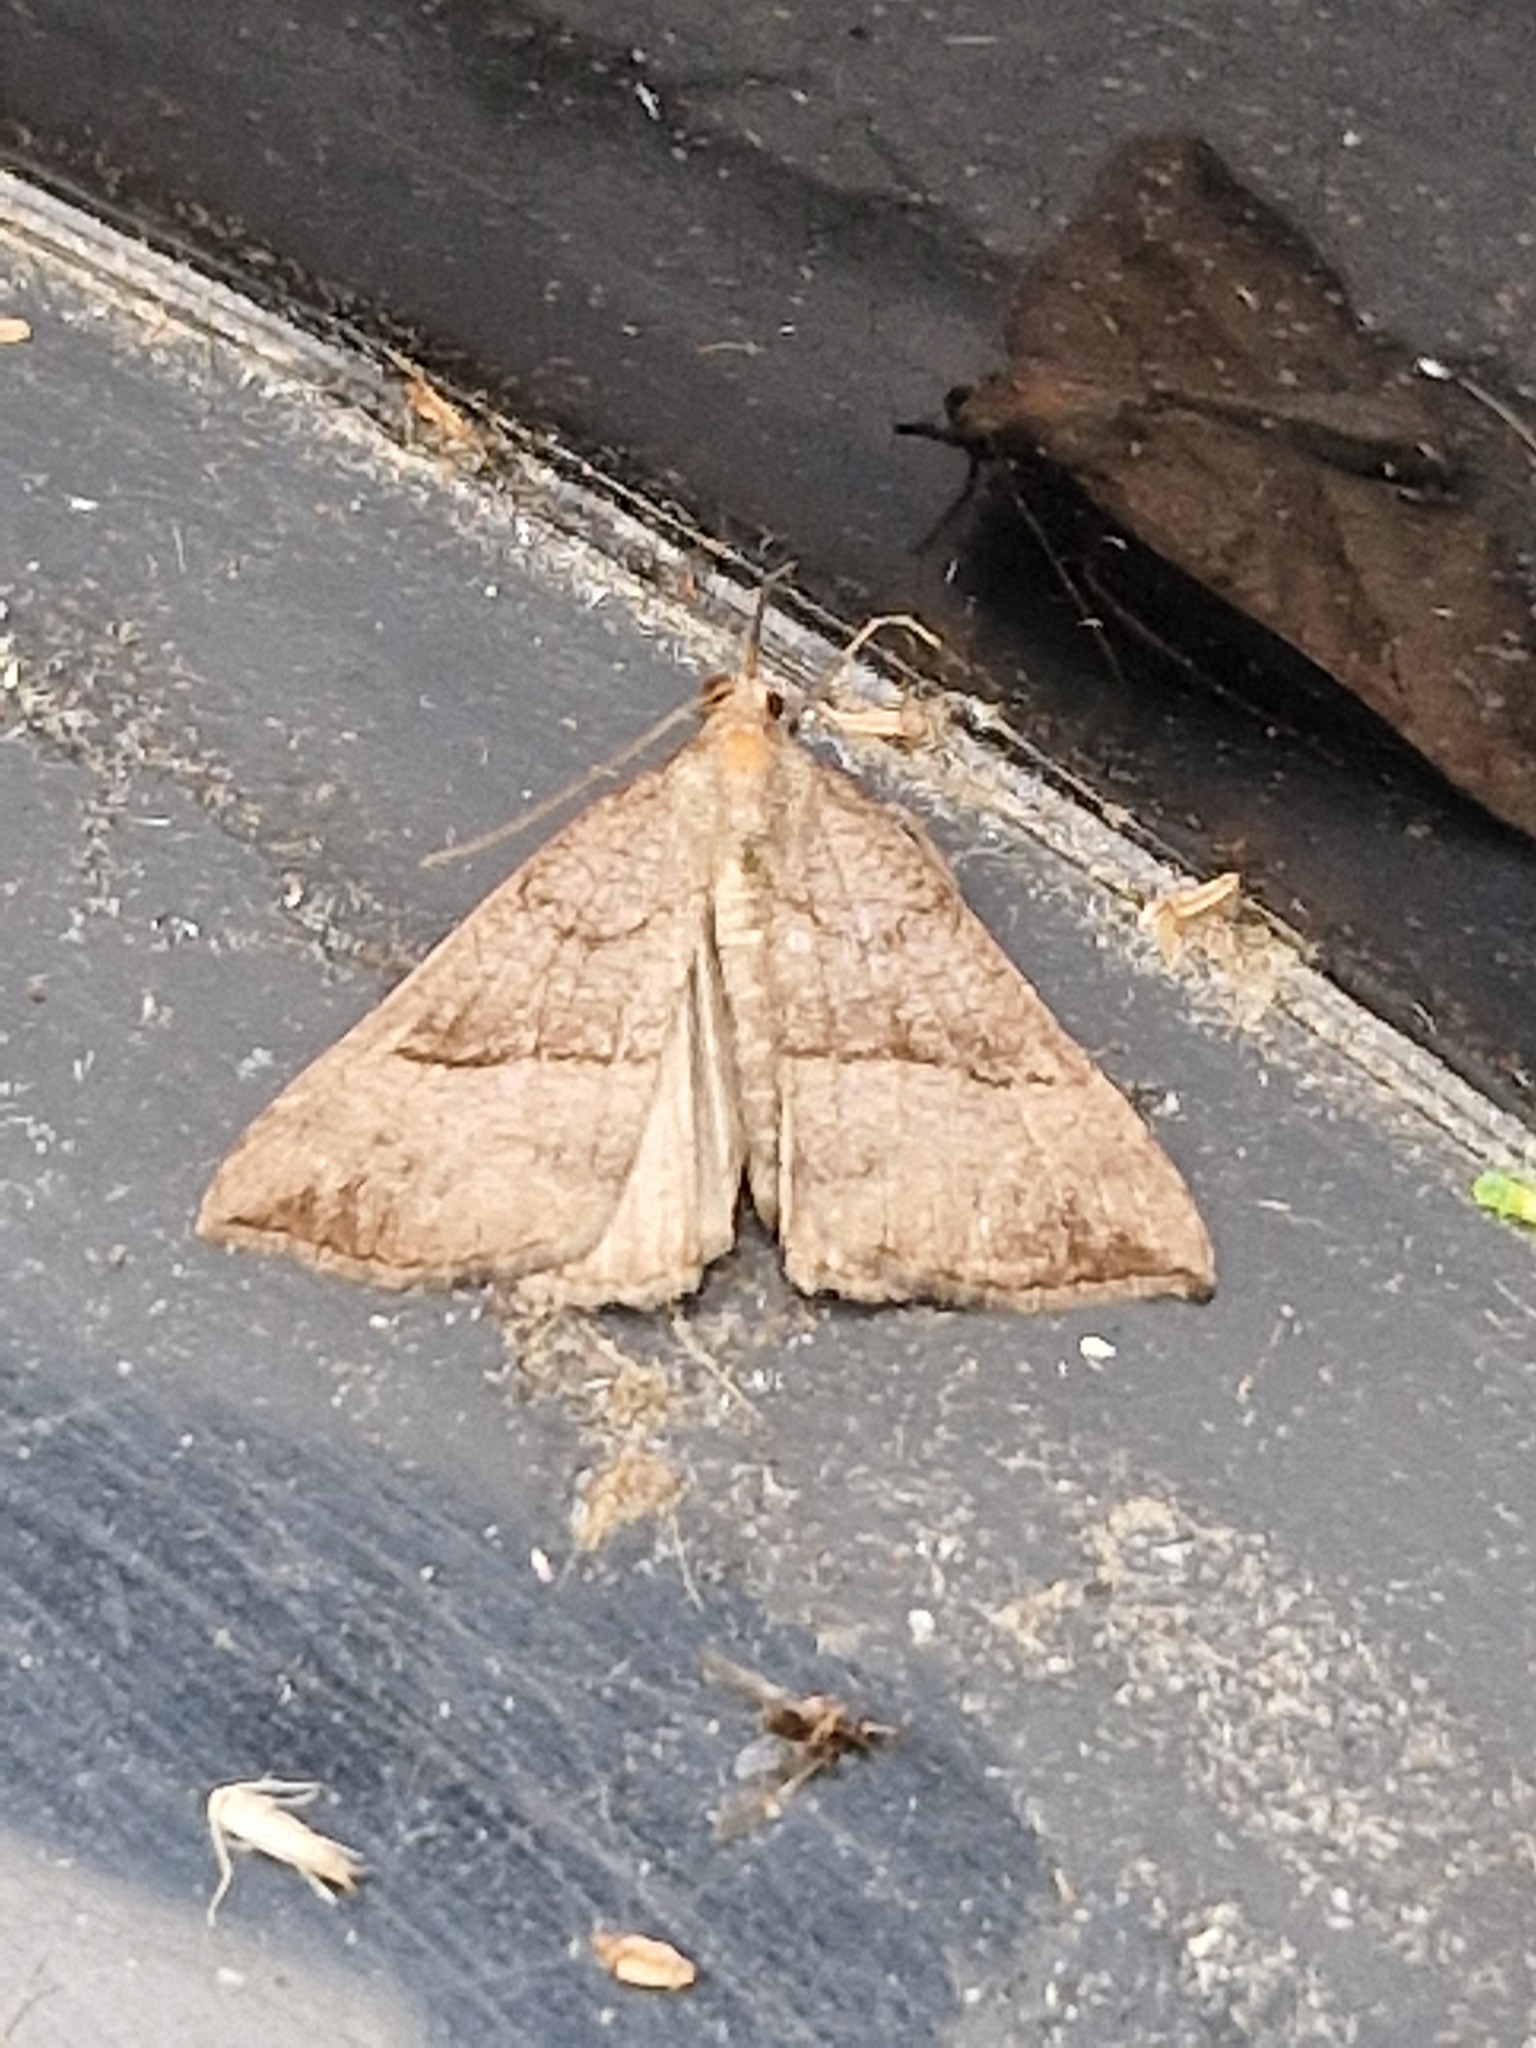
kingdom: Animalia
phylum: Arthropoda
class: Insecta
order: Lepidoptera
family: Erebidae
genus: Hypena
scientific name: Hypena proboscidalis
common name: Snout
